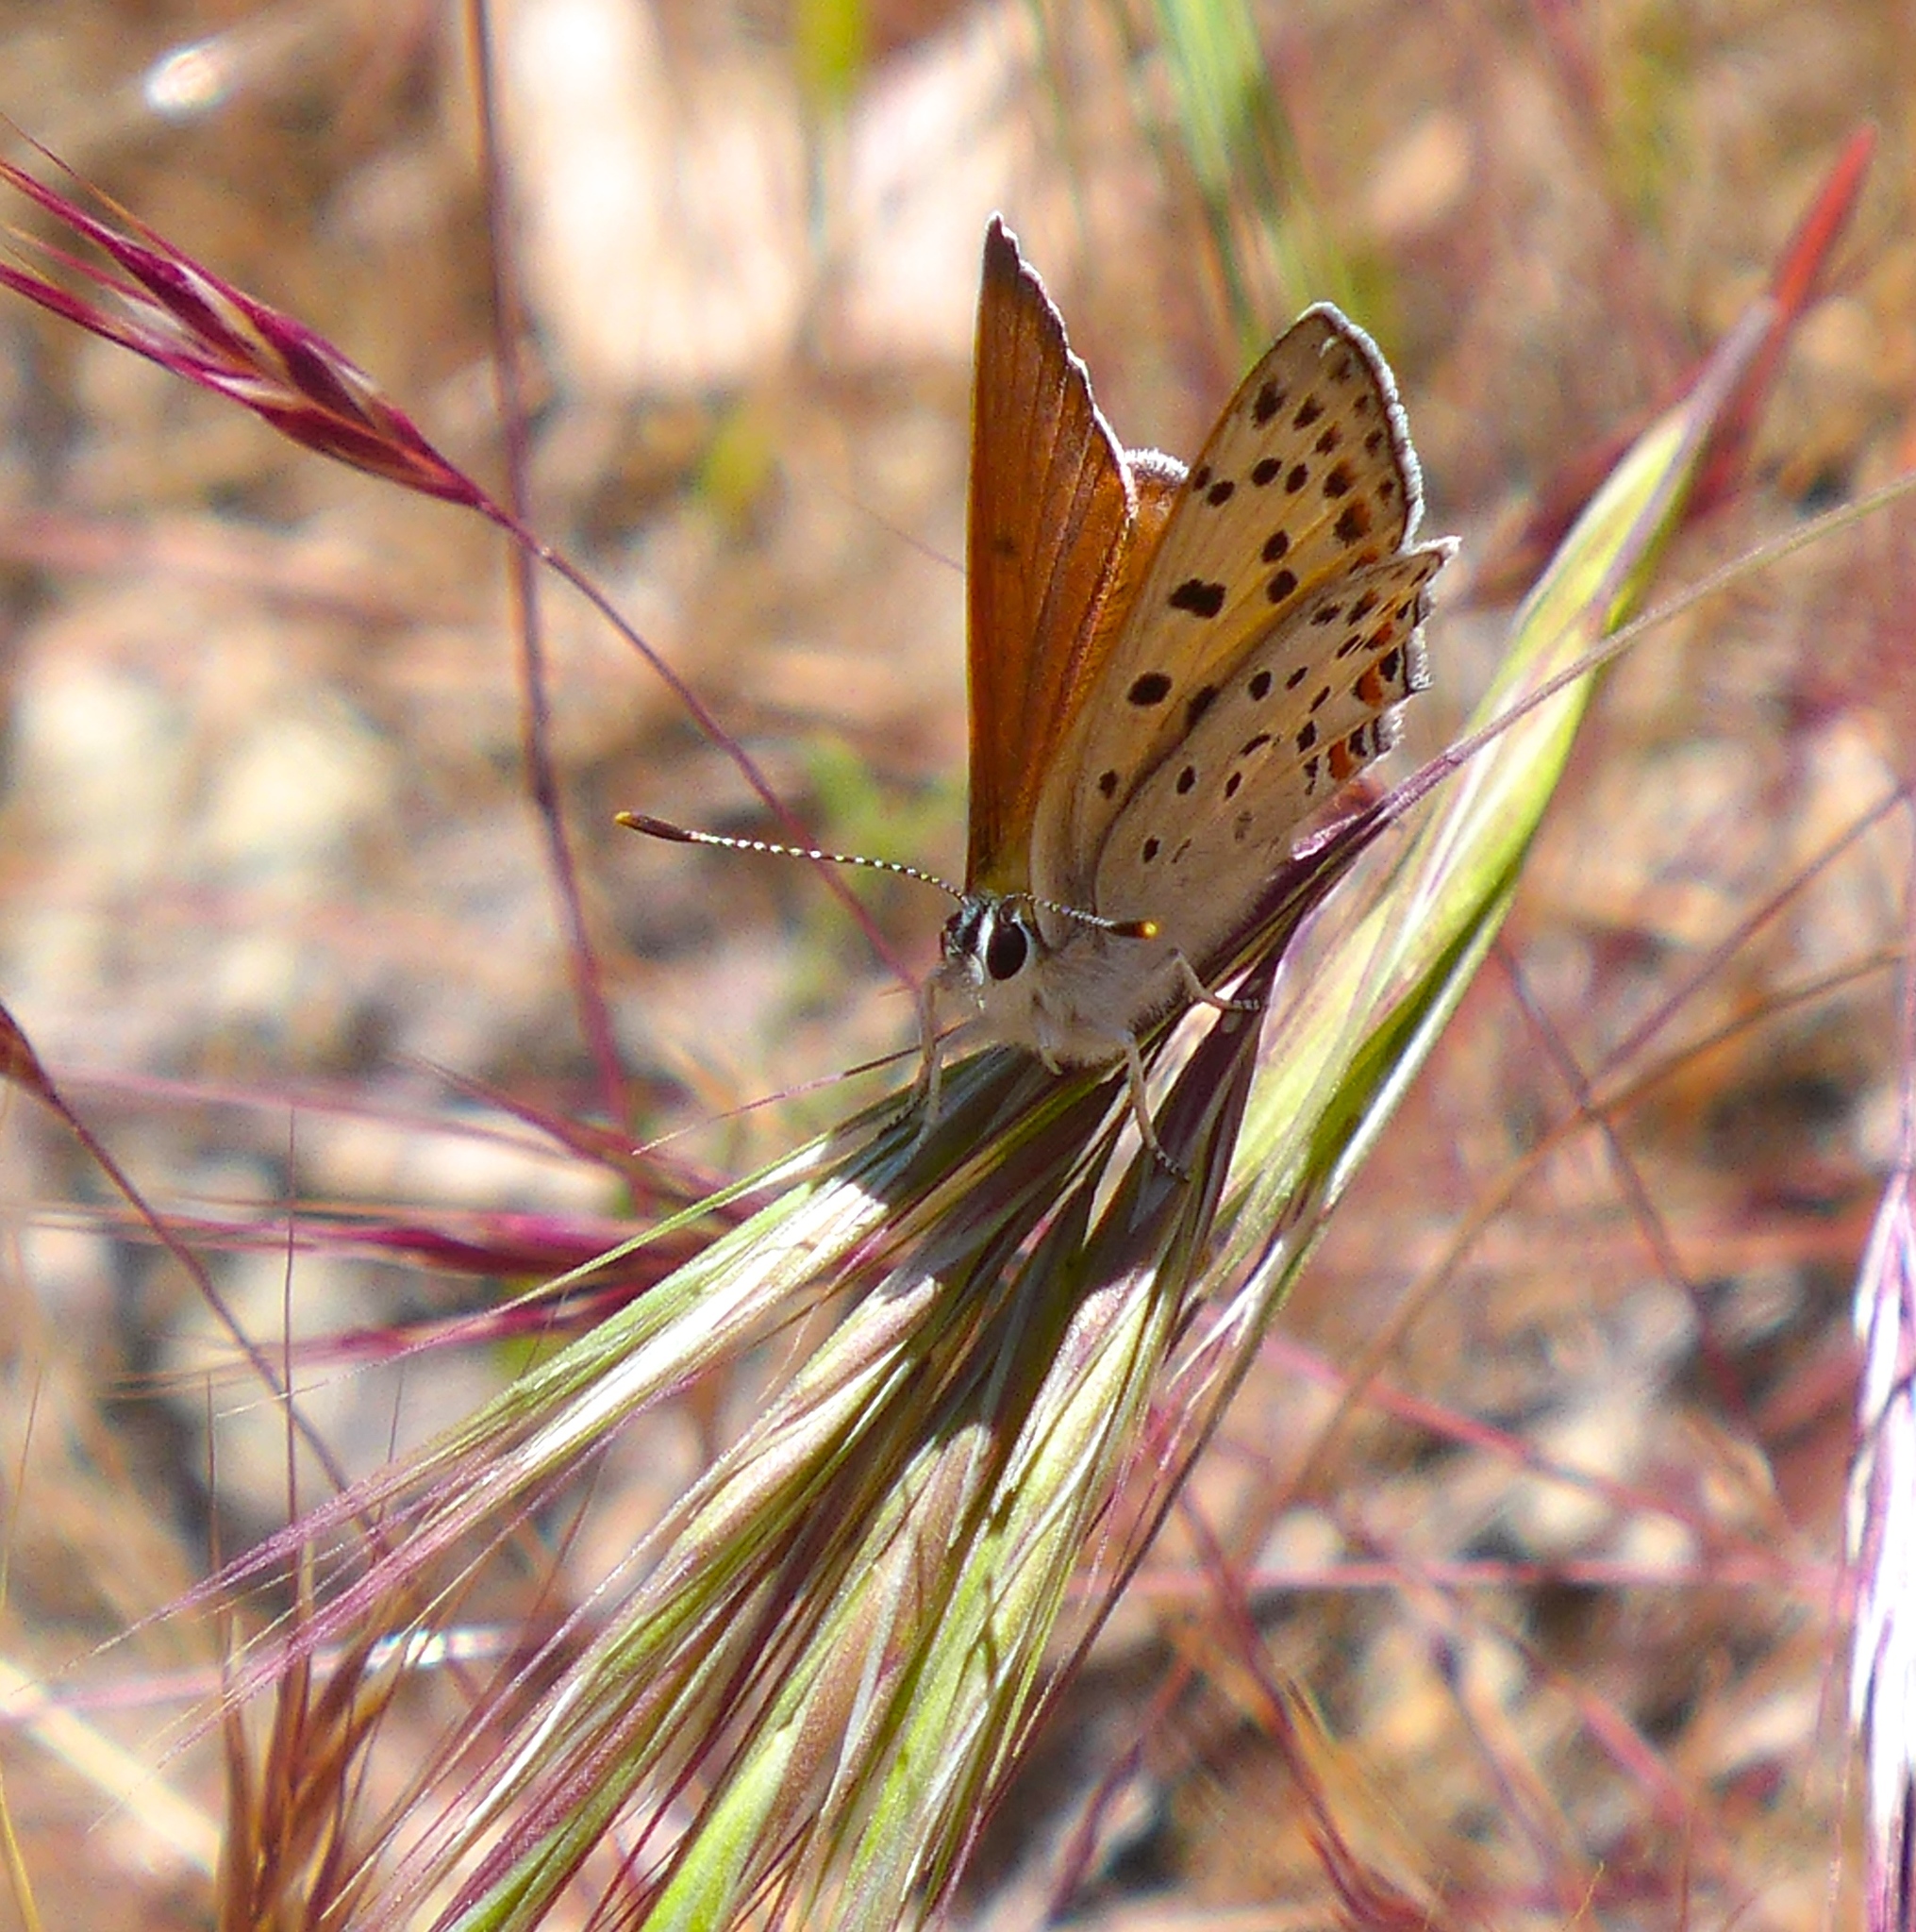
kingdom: Animalia
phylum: Arthropoda
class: Insecta
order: Lepidoptera
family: Lycaenidae
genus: Tharsalea
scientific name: Tharsalea gorgon
